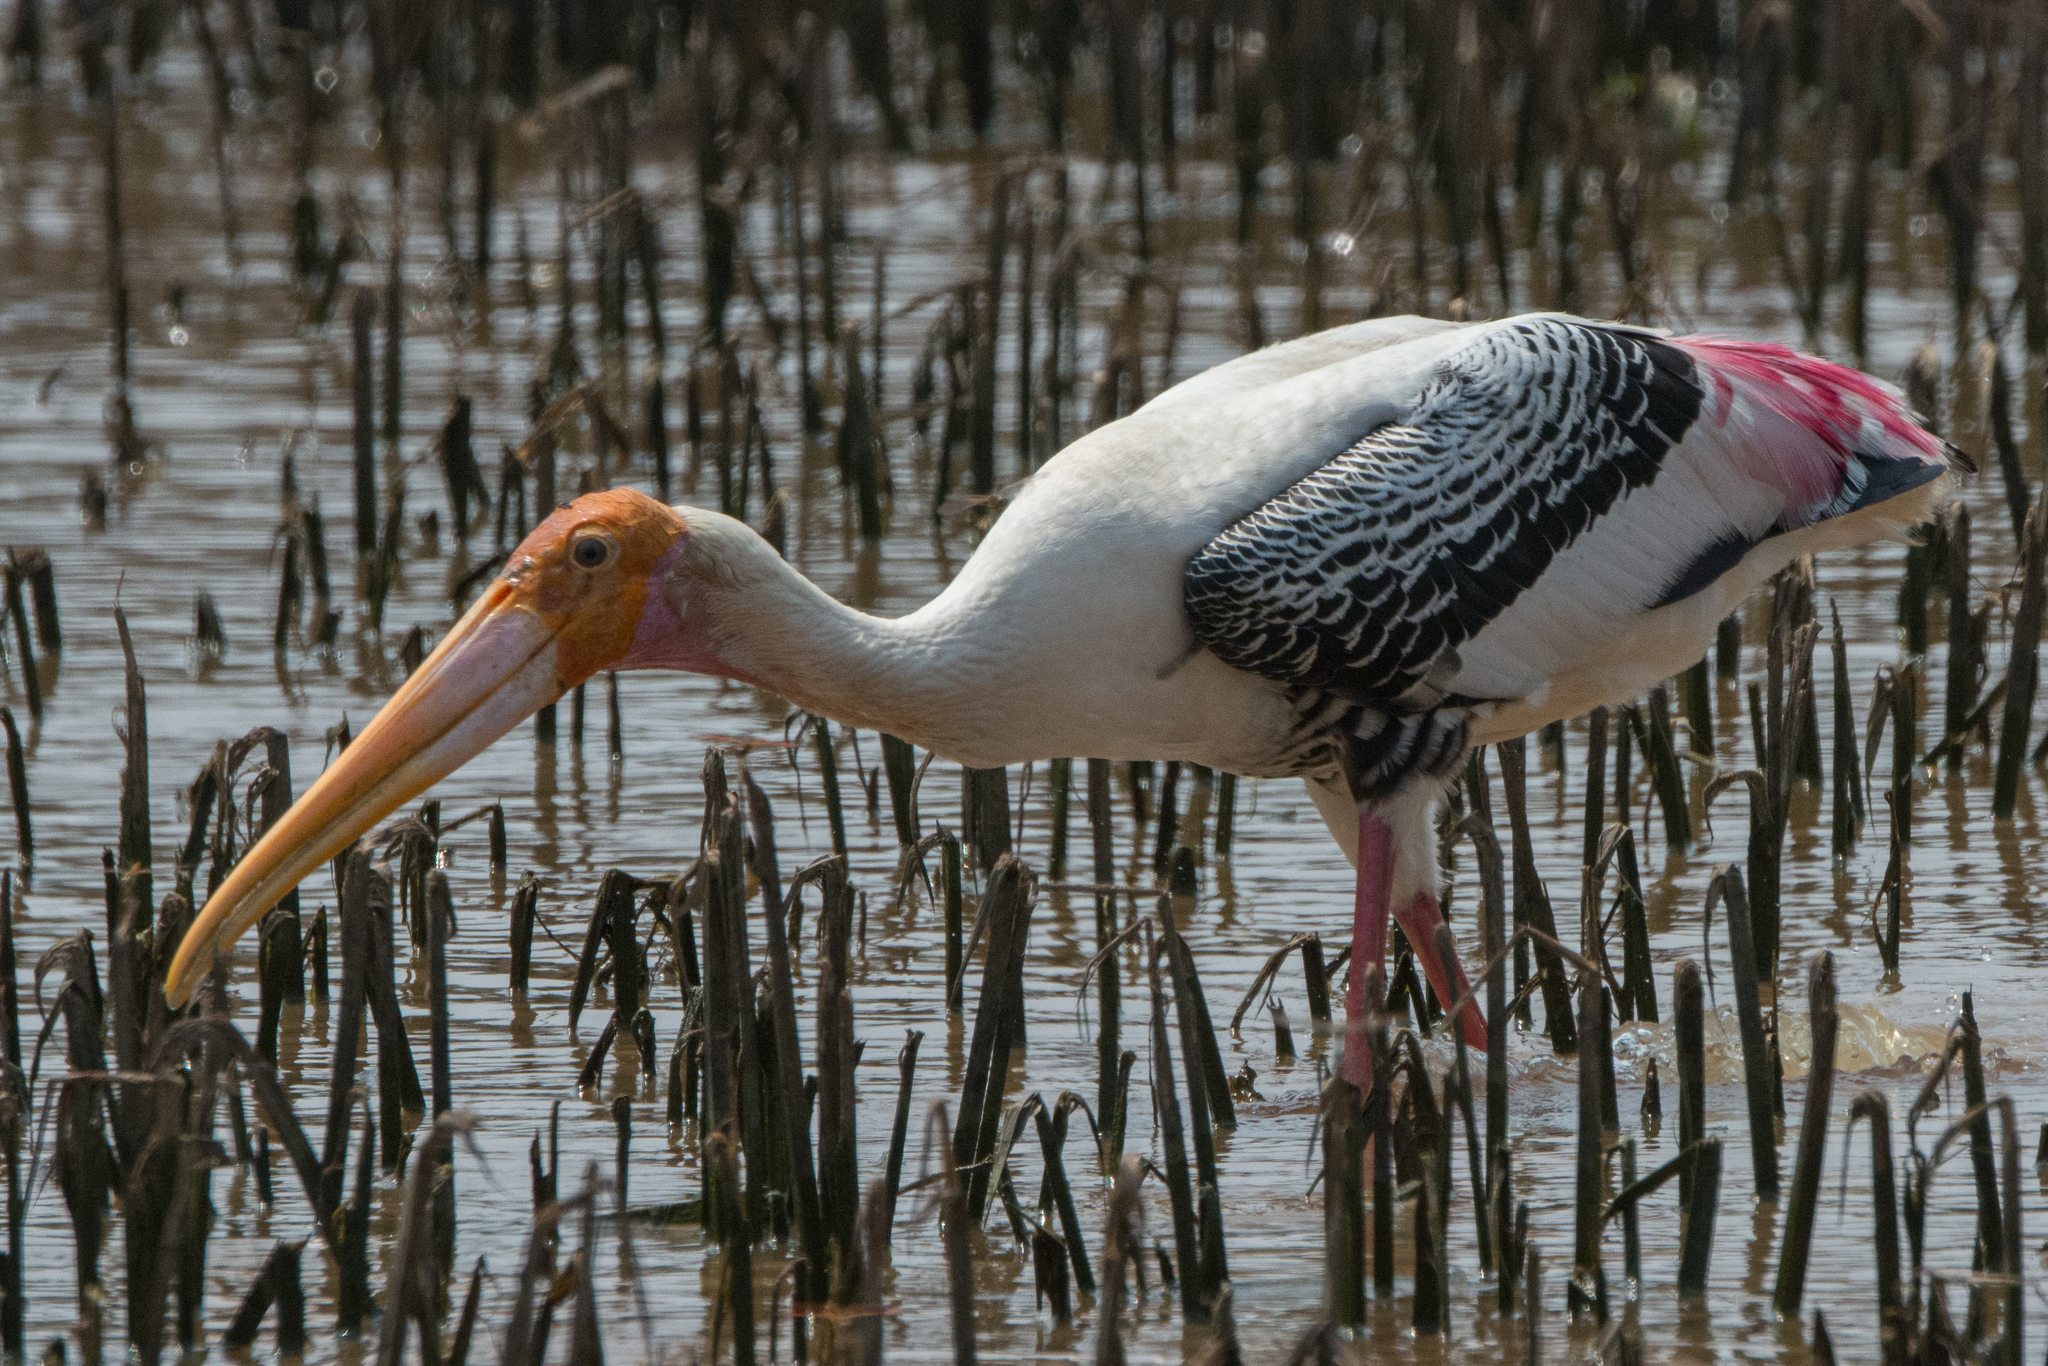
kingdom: Animalia
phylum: Chordata
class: Aves
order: Ciconiiformes
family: Ciconiidae
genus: Mycteria
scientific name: Mycteria leucocephala
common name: Painted stork
